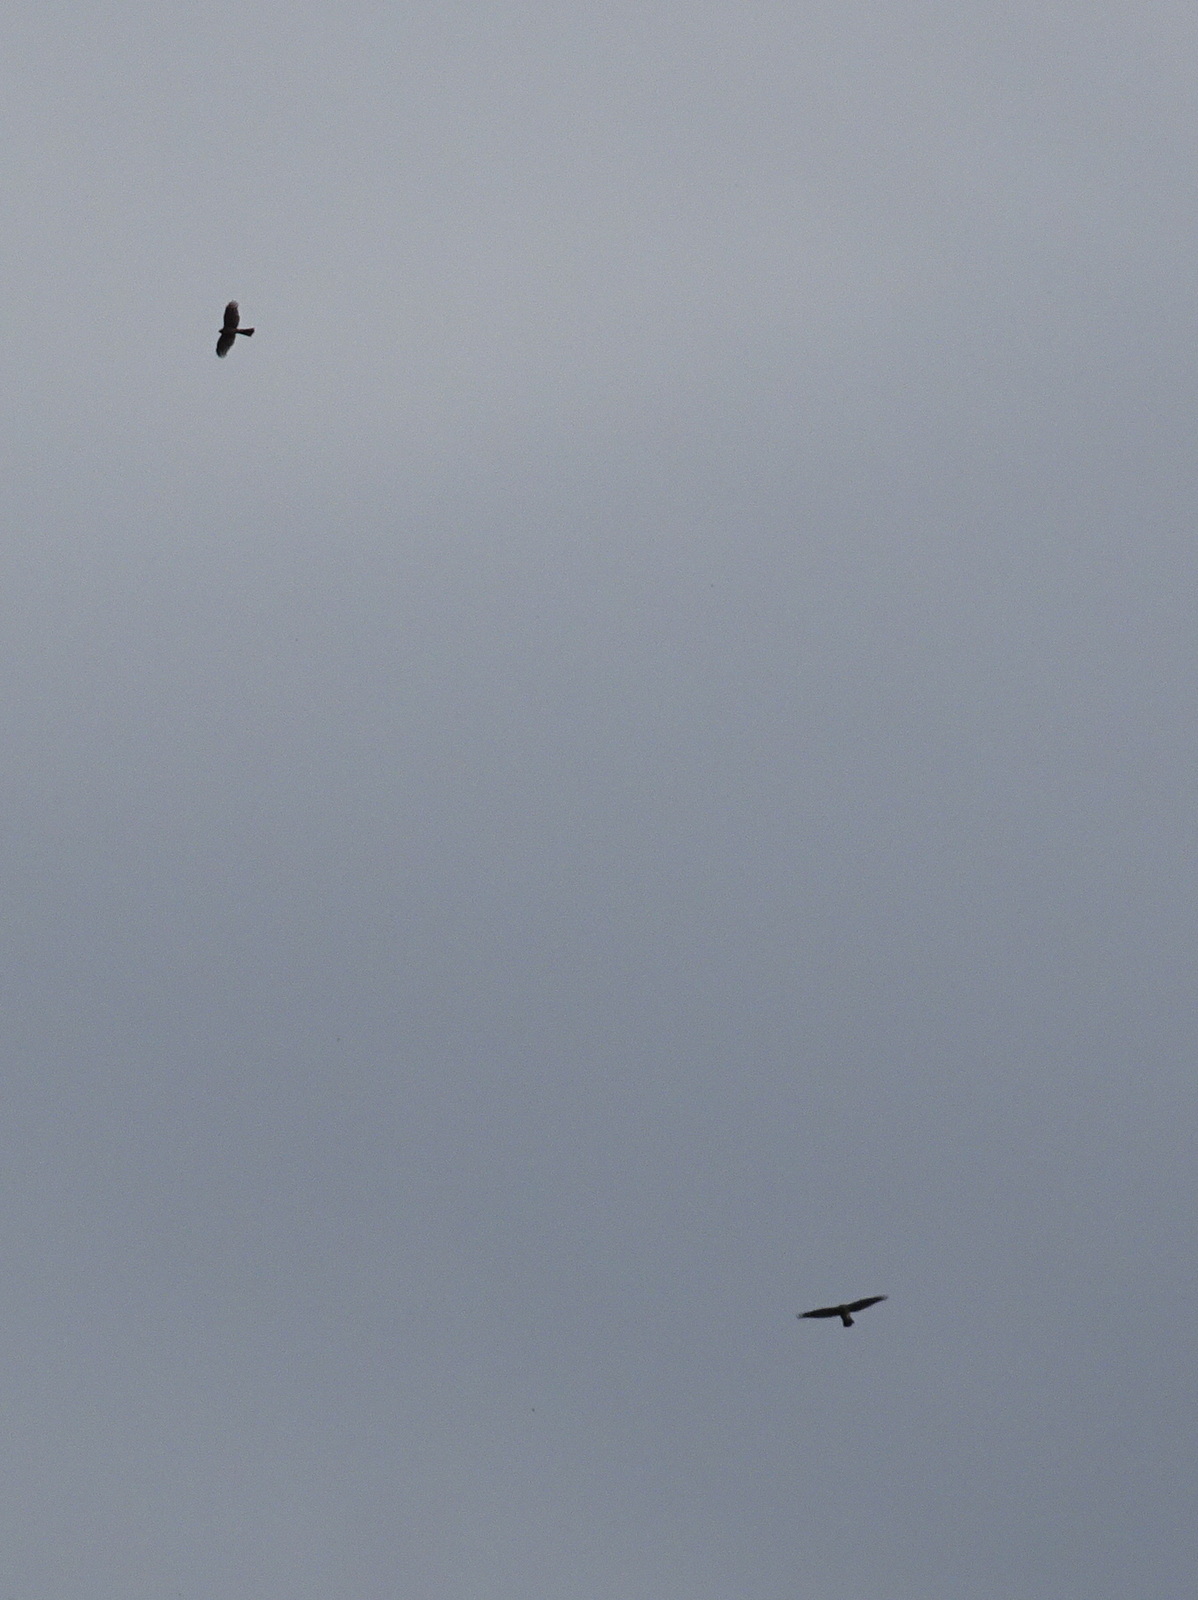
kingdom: Animalia
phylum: Chordata
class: Aves
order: Accipitriformes
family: Accipitridae
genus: Accipiter
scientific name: Accipiter striatus
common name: Sharp-shinned hawk
